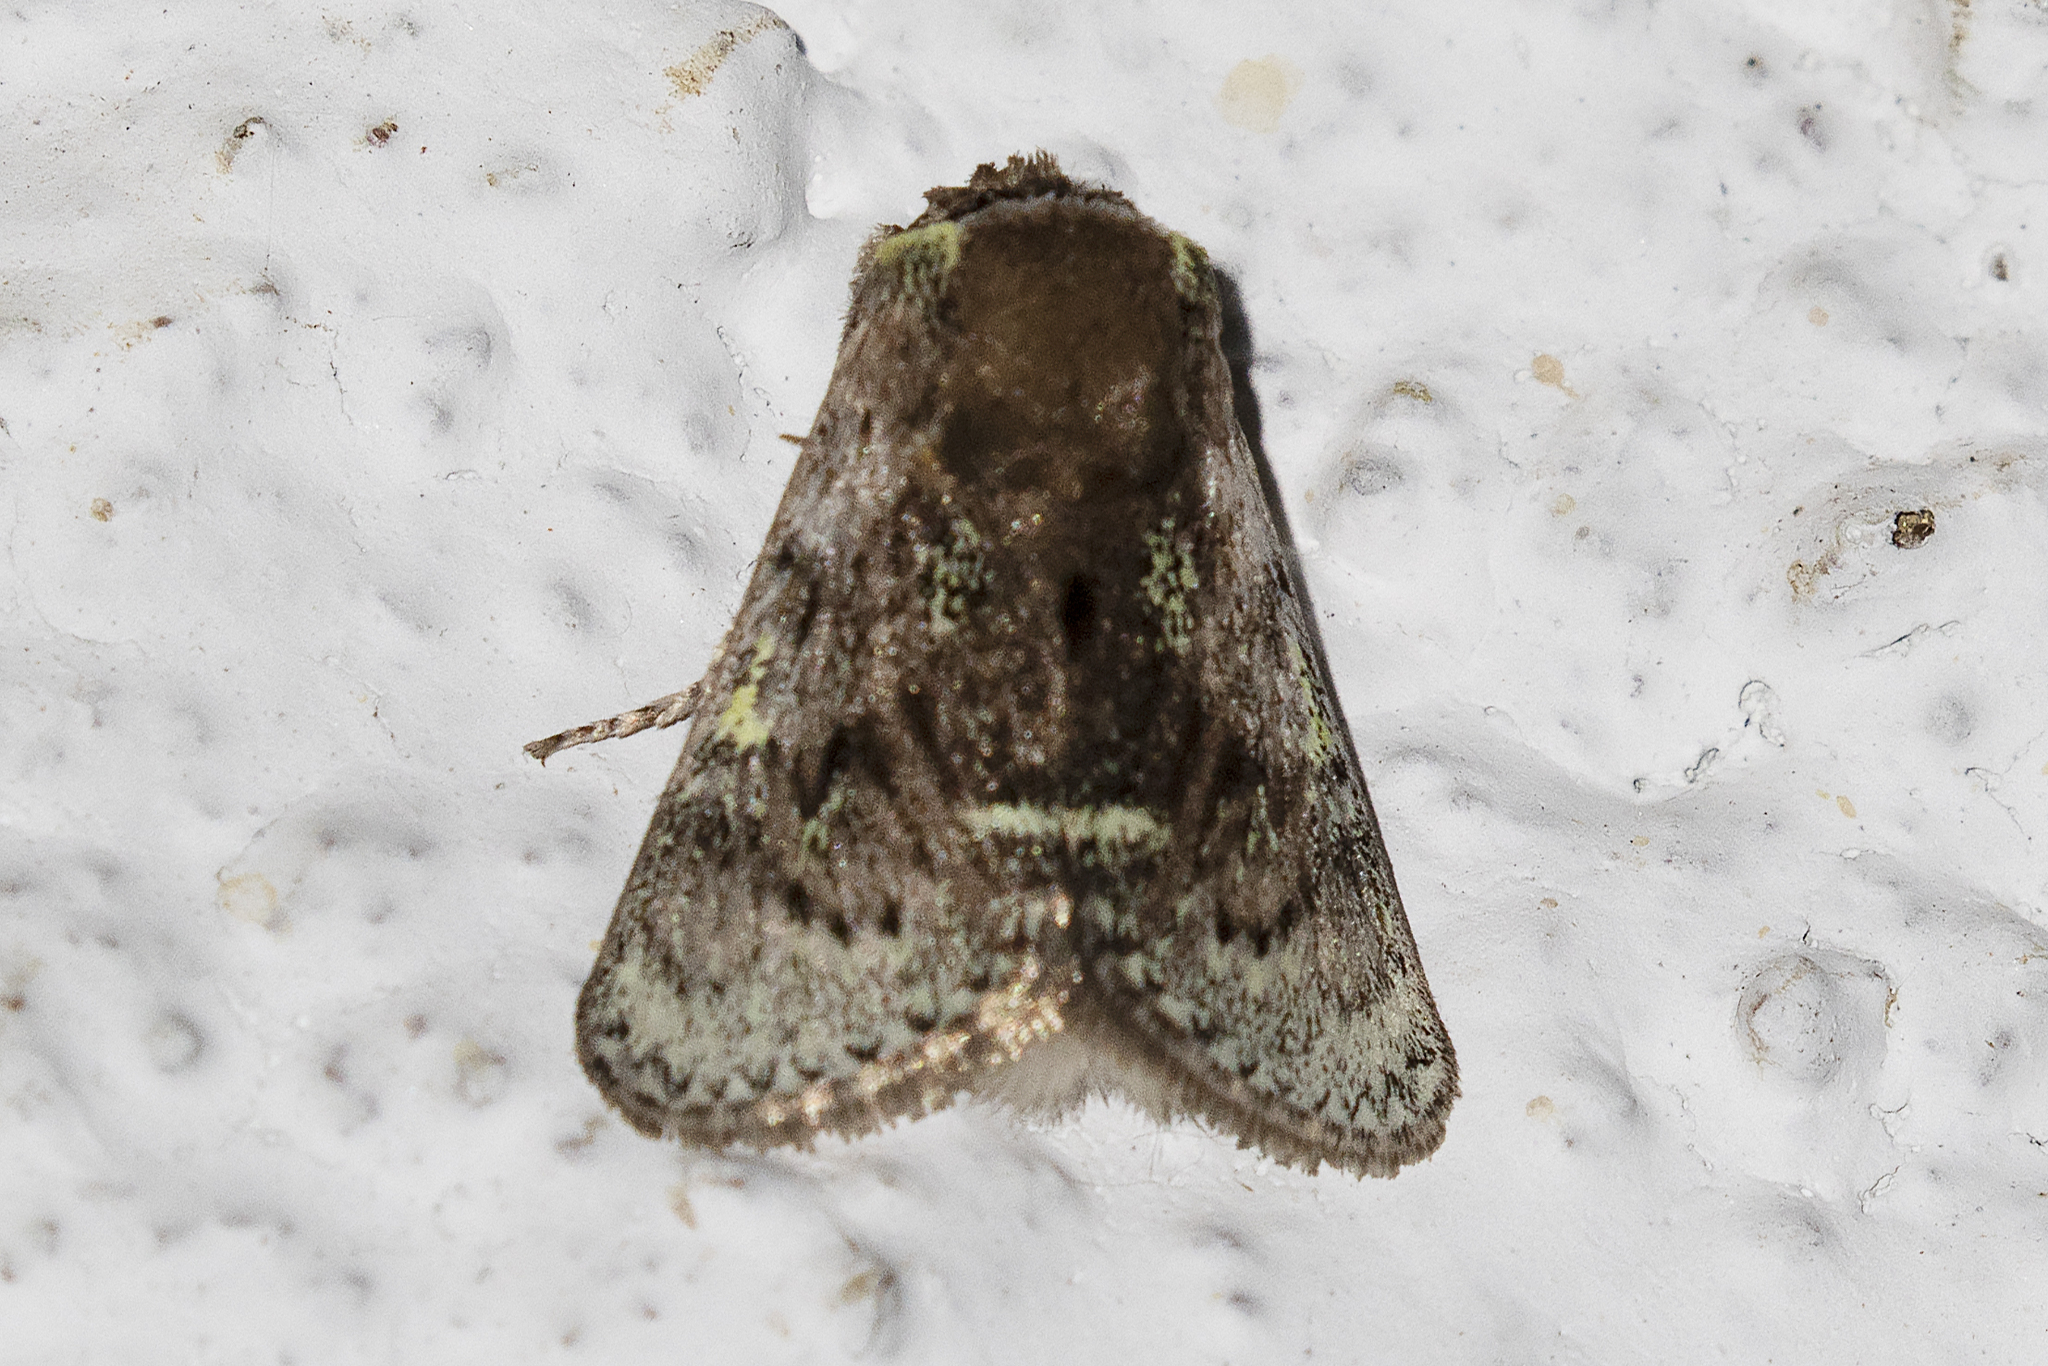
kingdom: Animalia
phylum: Arthropoda
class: Insecta
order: Lepidoptera
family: Aididae
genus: Xenarchus
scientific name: Xenarchus carmen
